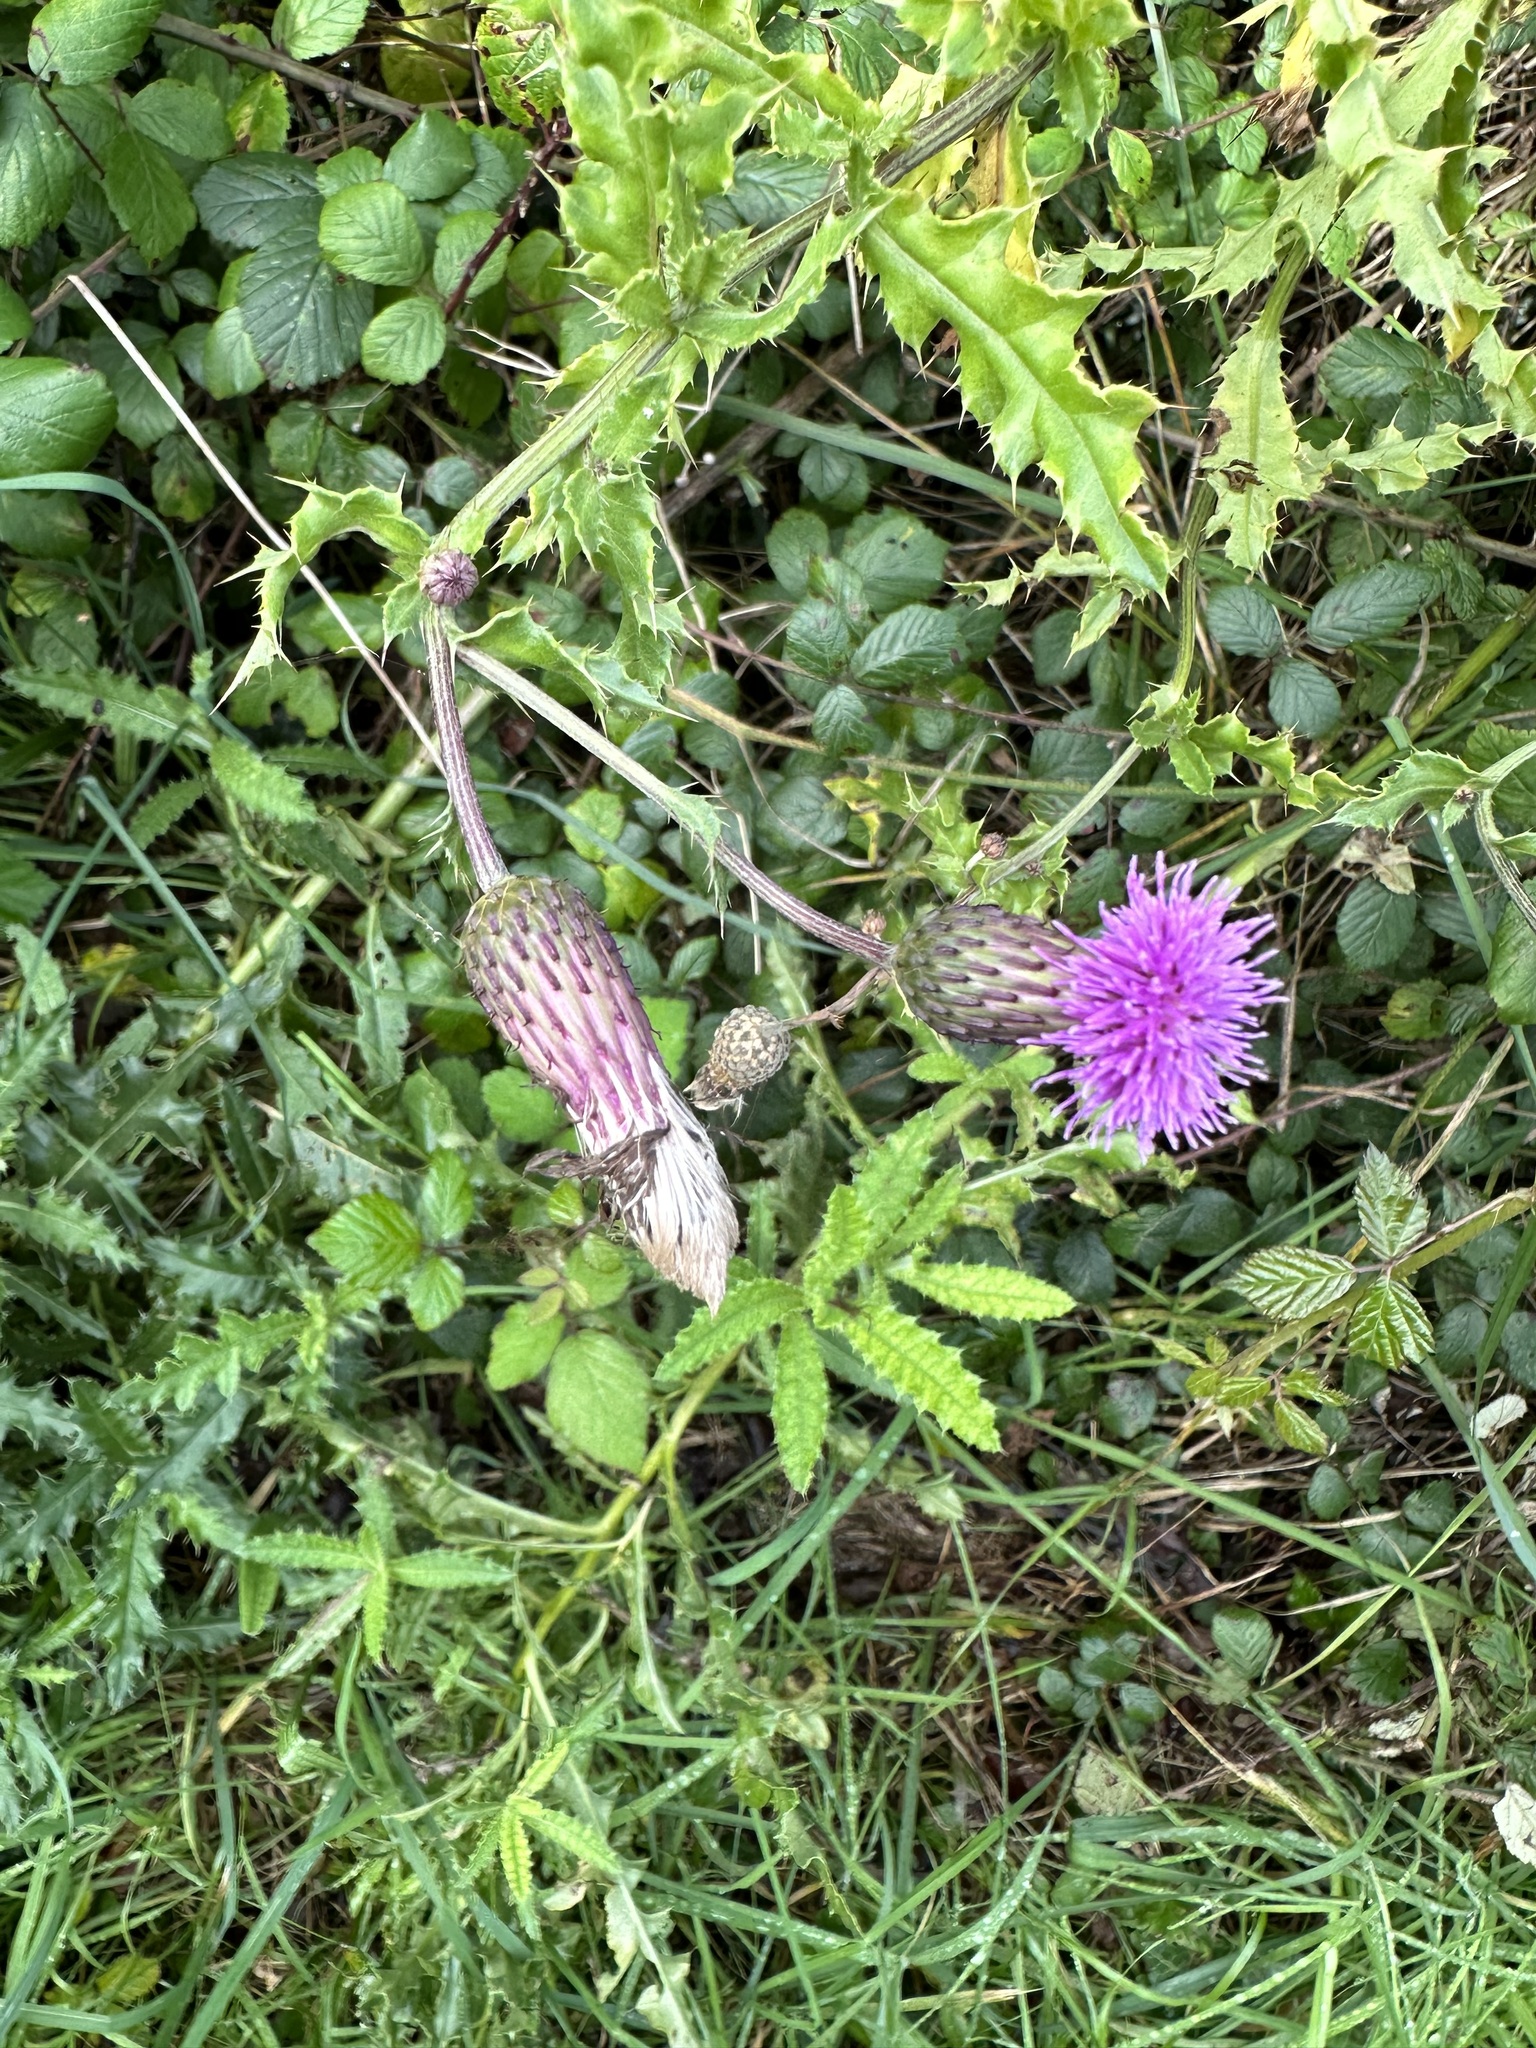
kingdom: Plantae
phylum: Tracheophyta
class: Magnoliopsida
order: Asterales
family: Asteraceae
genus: Cirsium
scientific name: Cirsium arvense
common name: Creeping thistle
